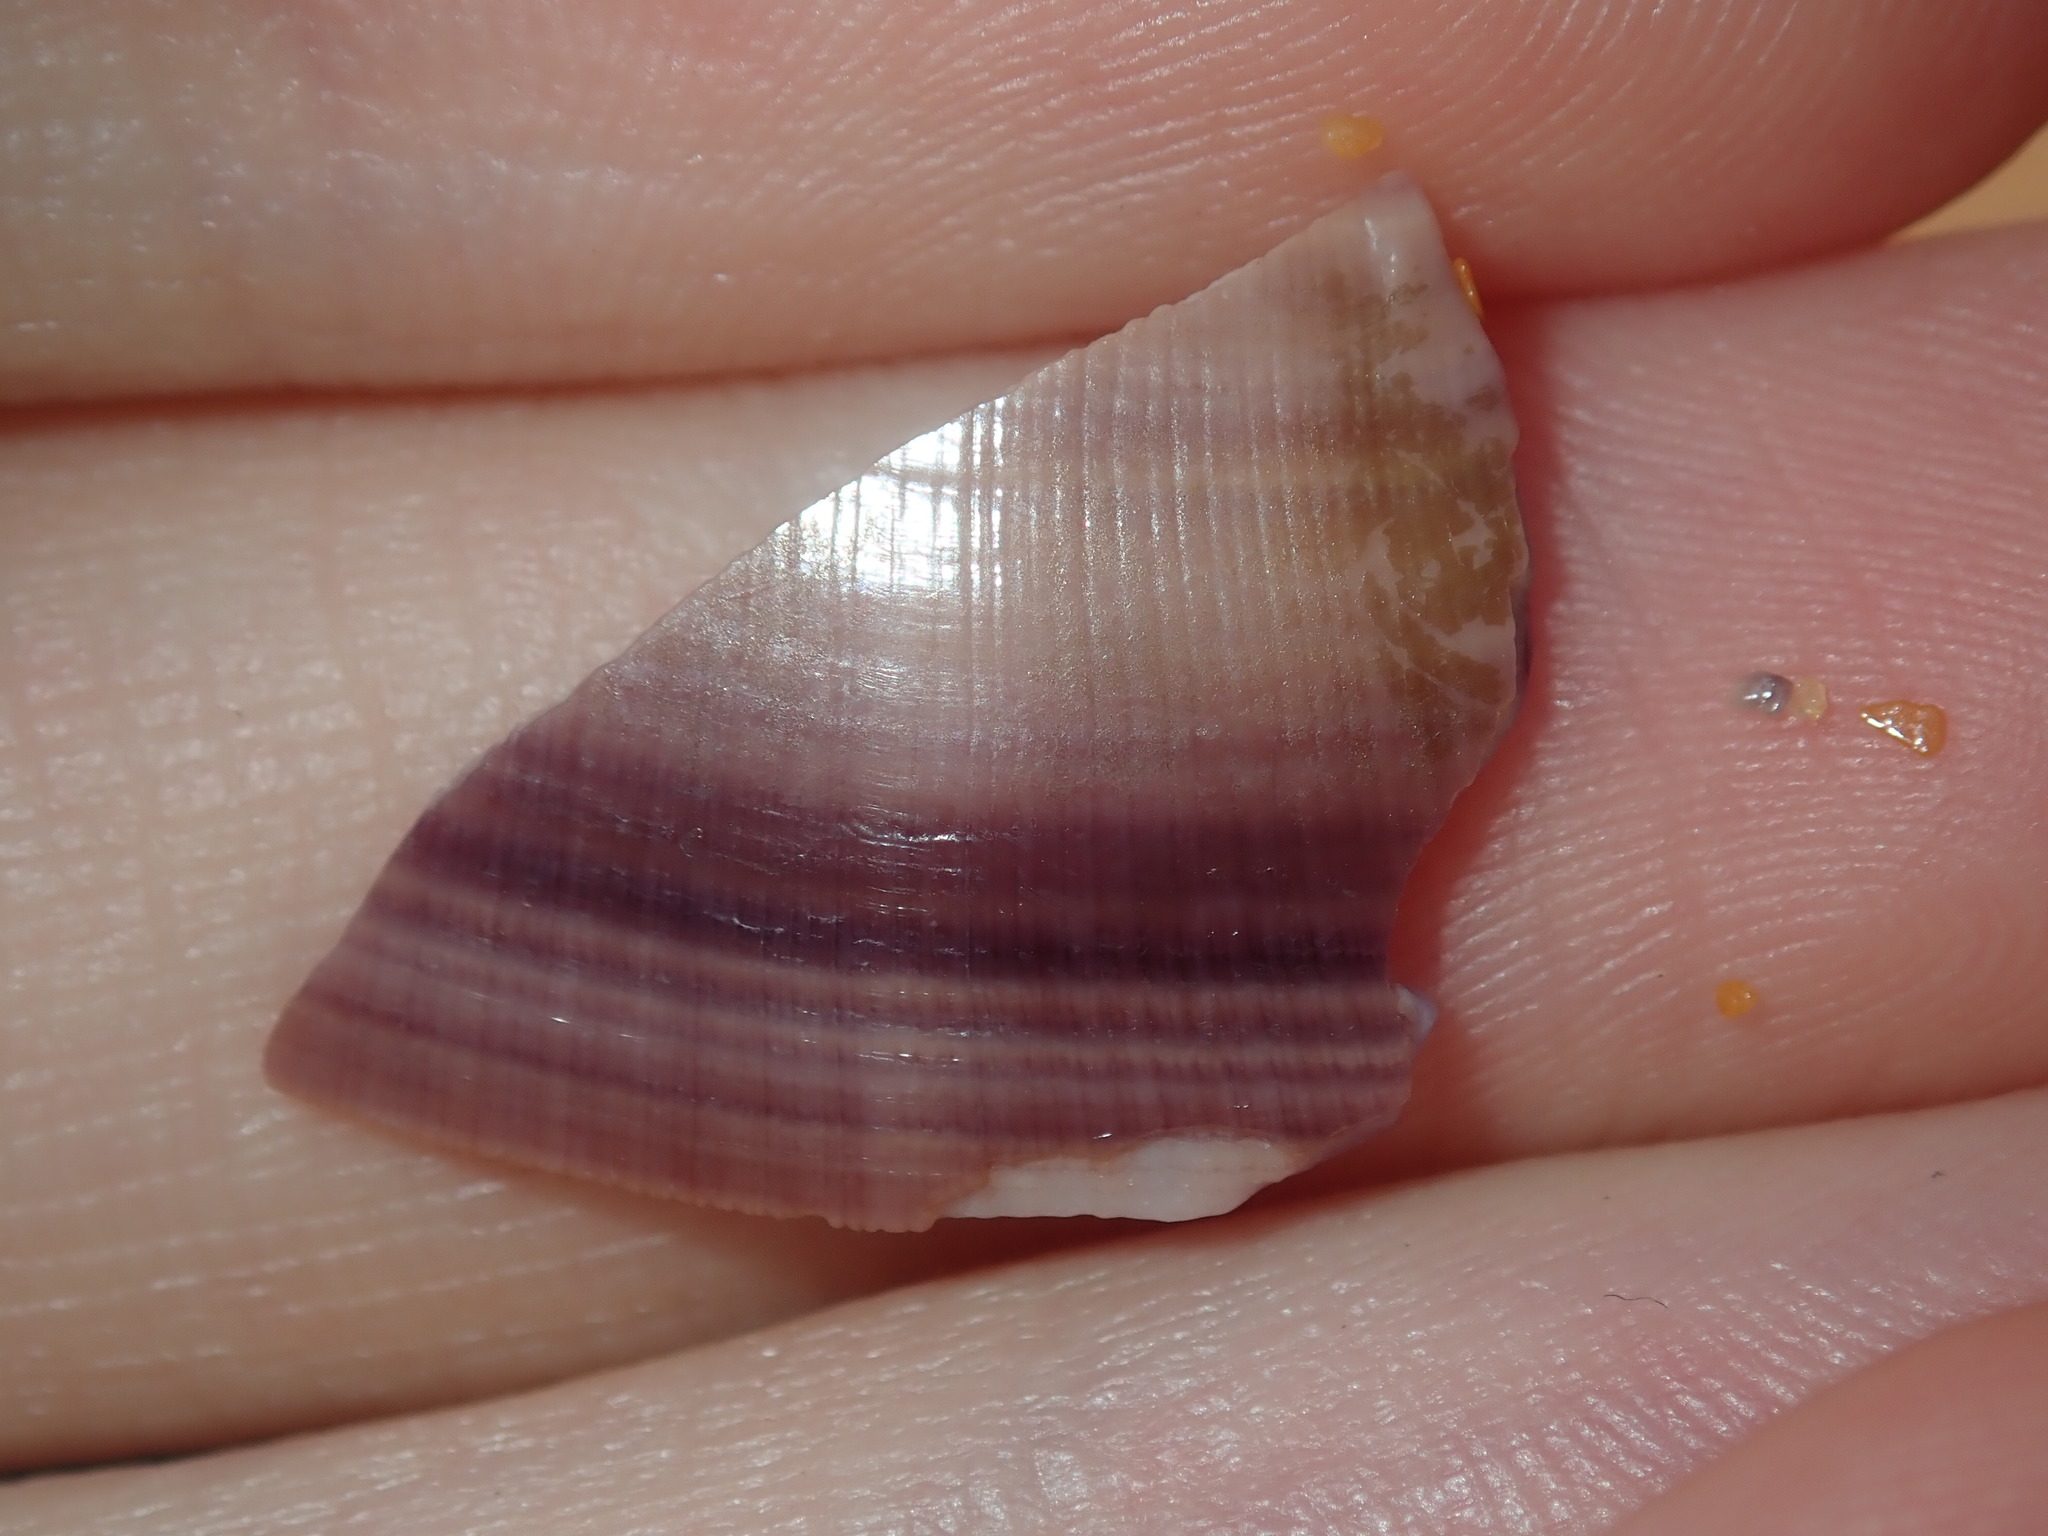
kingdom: Animalia
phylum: Mollusca
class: Bivalvia
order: Cardiida
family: Donacidae
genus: Latona
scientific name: Latona deltoides
